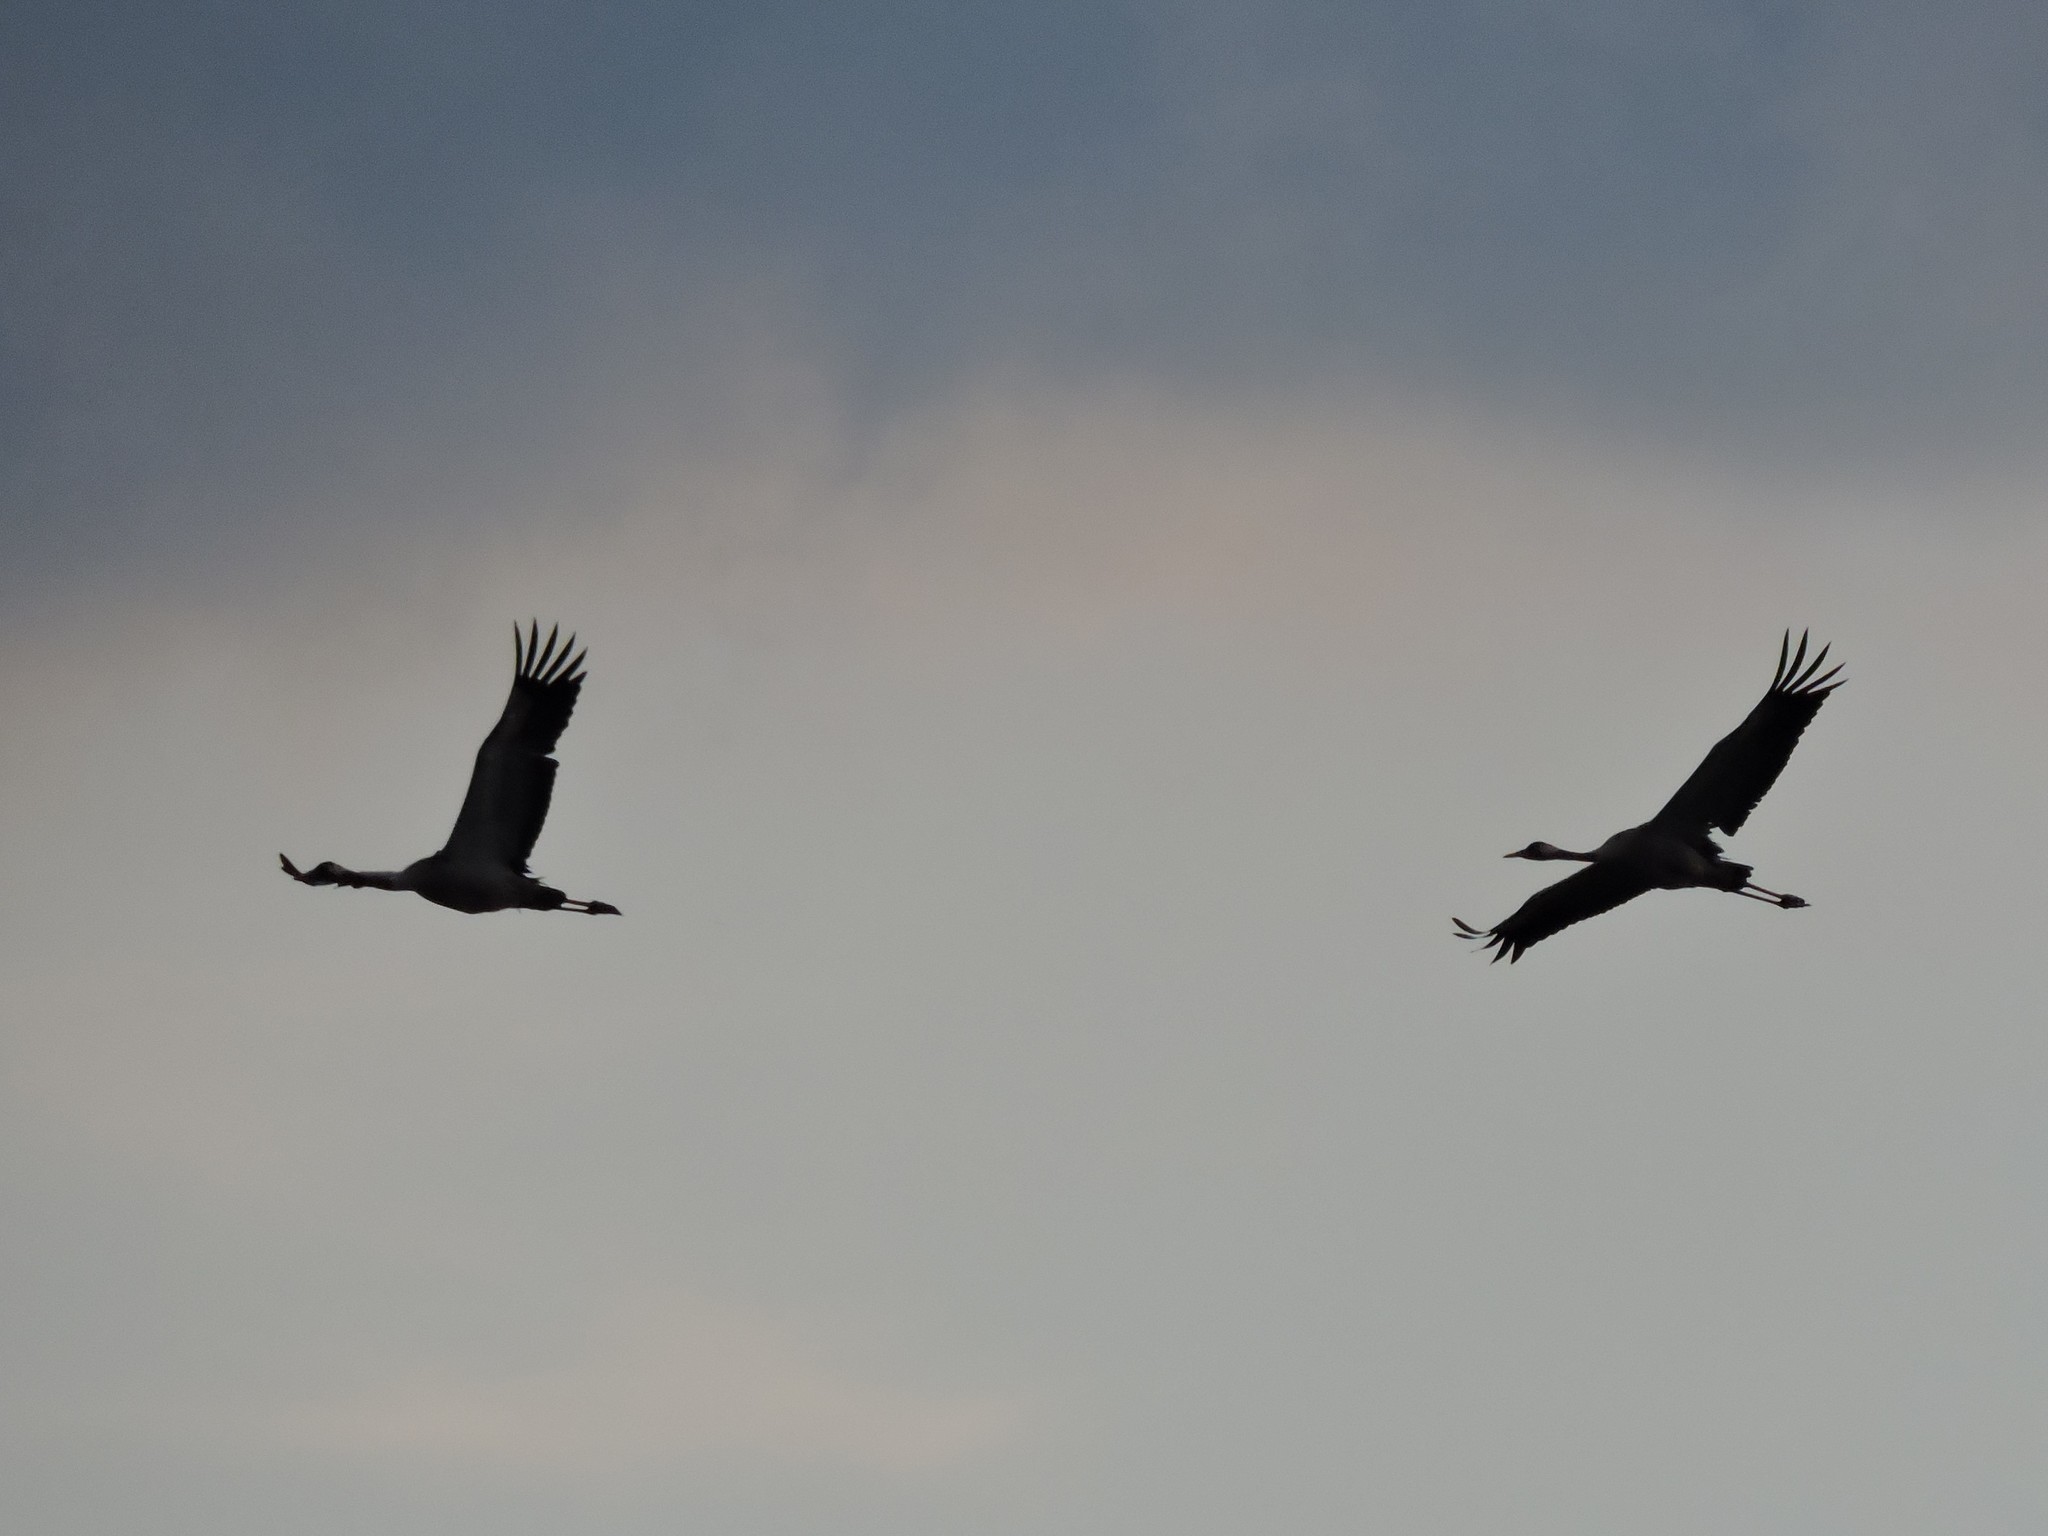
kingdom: Animalia
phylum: Chordata
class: Aves
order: Gruiformes
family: Gruidae
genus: Grus
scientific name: Grus grus
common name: Common crane
